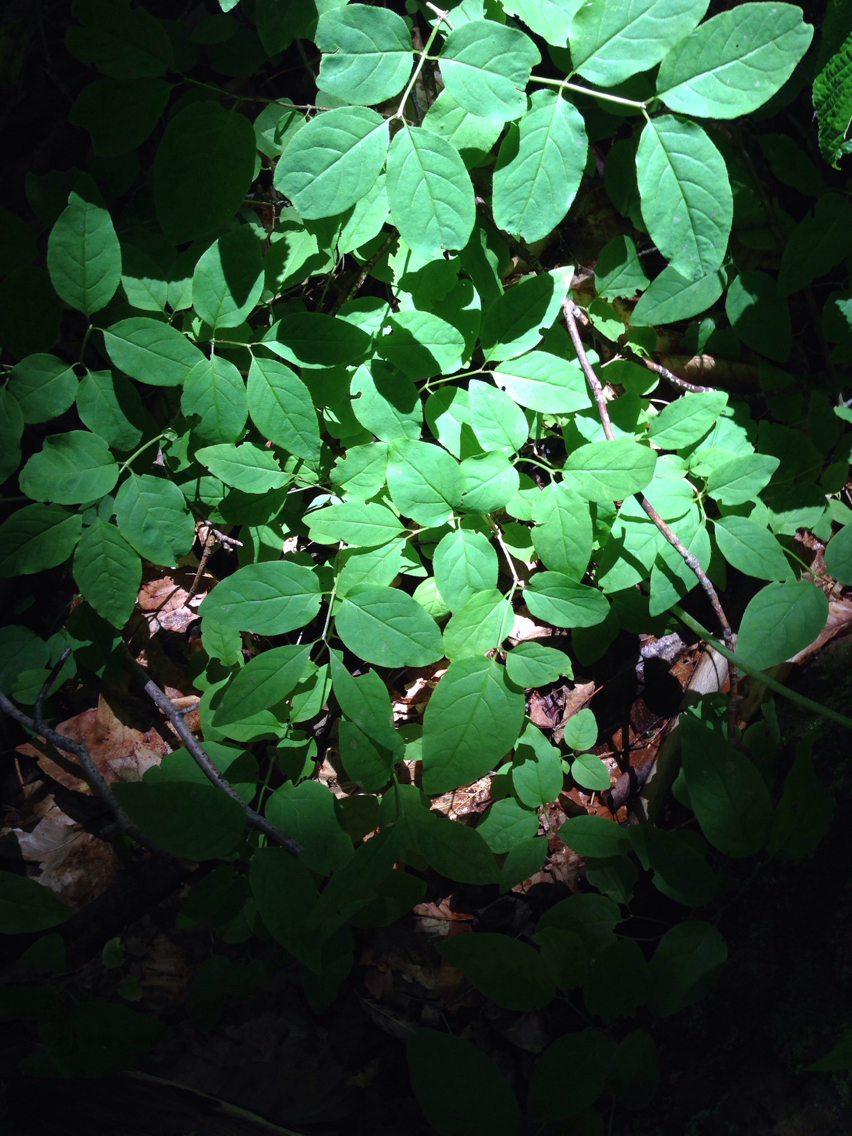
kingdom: Plantae
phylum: Tracheophyta
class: Magnoliopsida
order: Dipsacales
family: Caprifoliaceae
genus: Lonicera
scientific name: Lonicera canadensis
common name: American fly-honeysuckle
